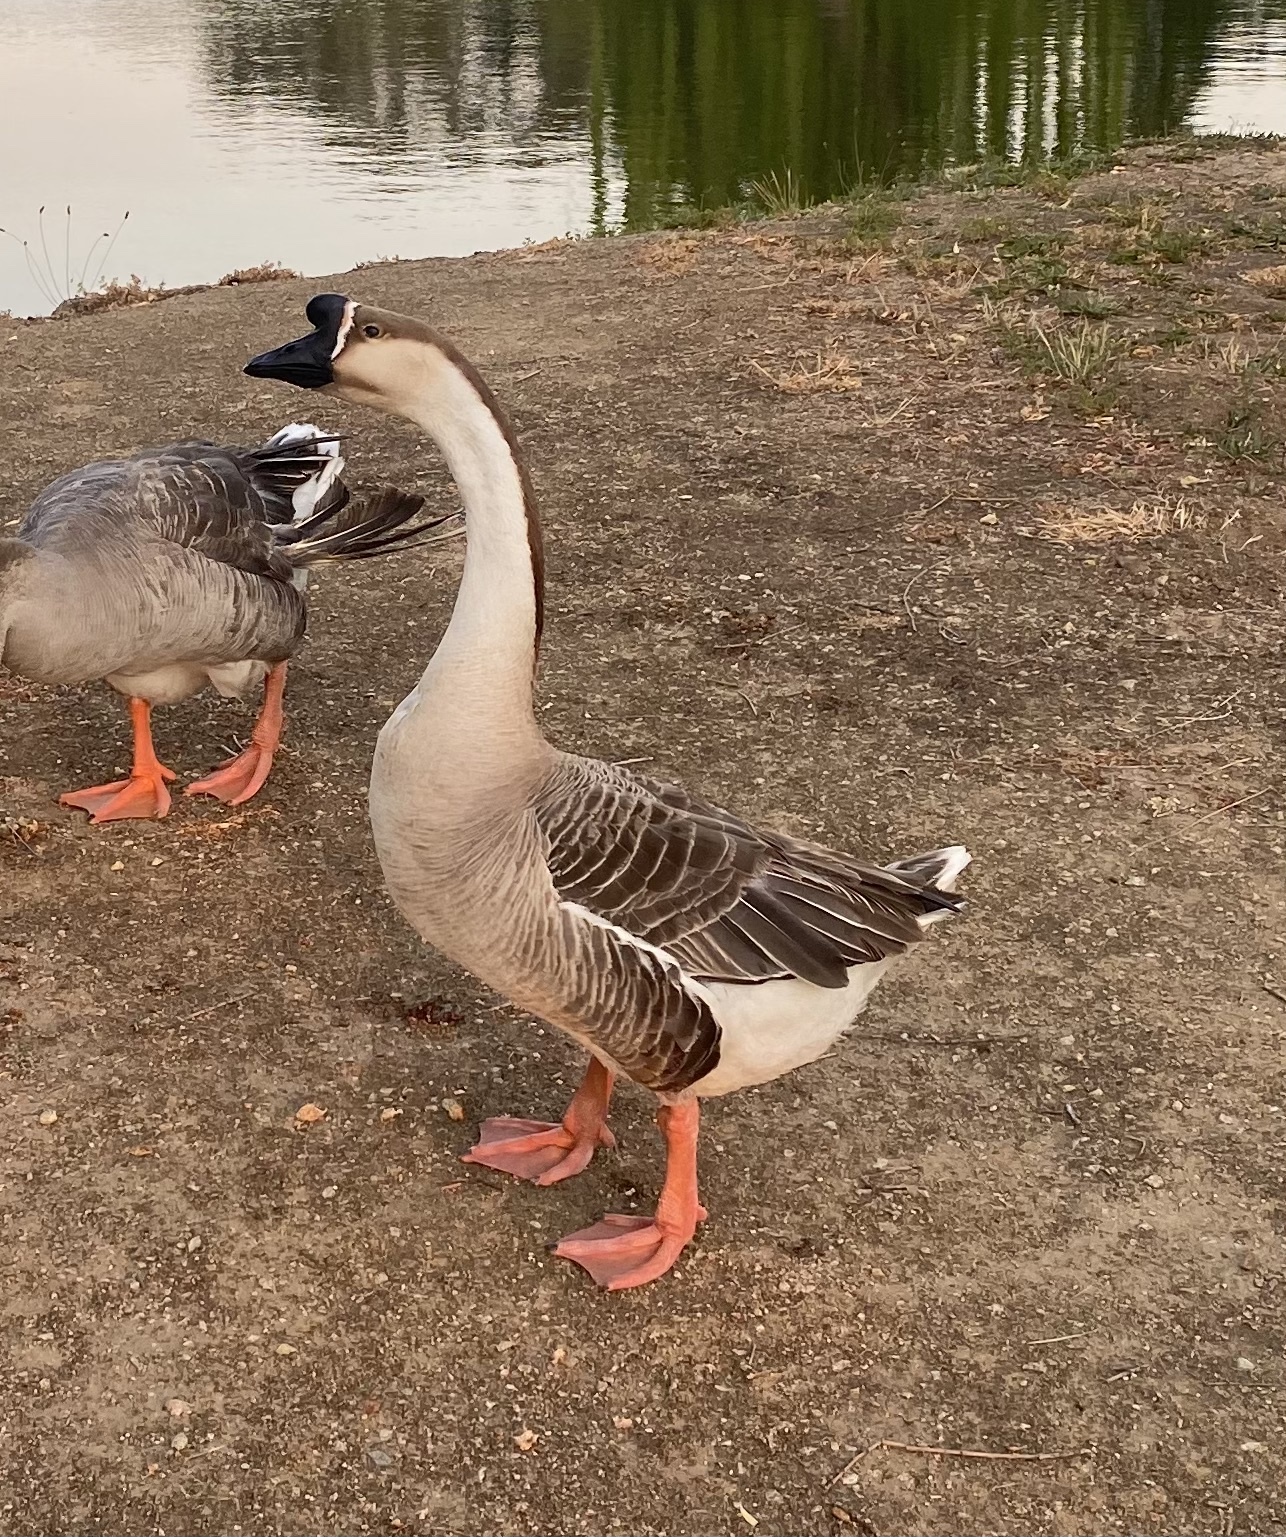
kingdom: Animalia
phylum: Chordata
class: Aves
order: Anseriformes
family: Anatidae
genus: Anser
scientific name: Anser cygnoides
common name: Swan goose
